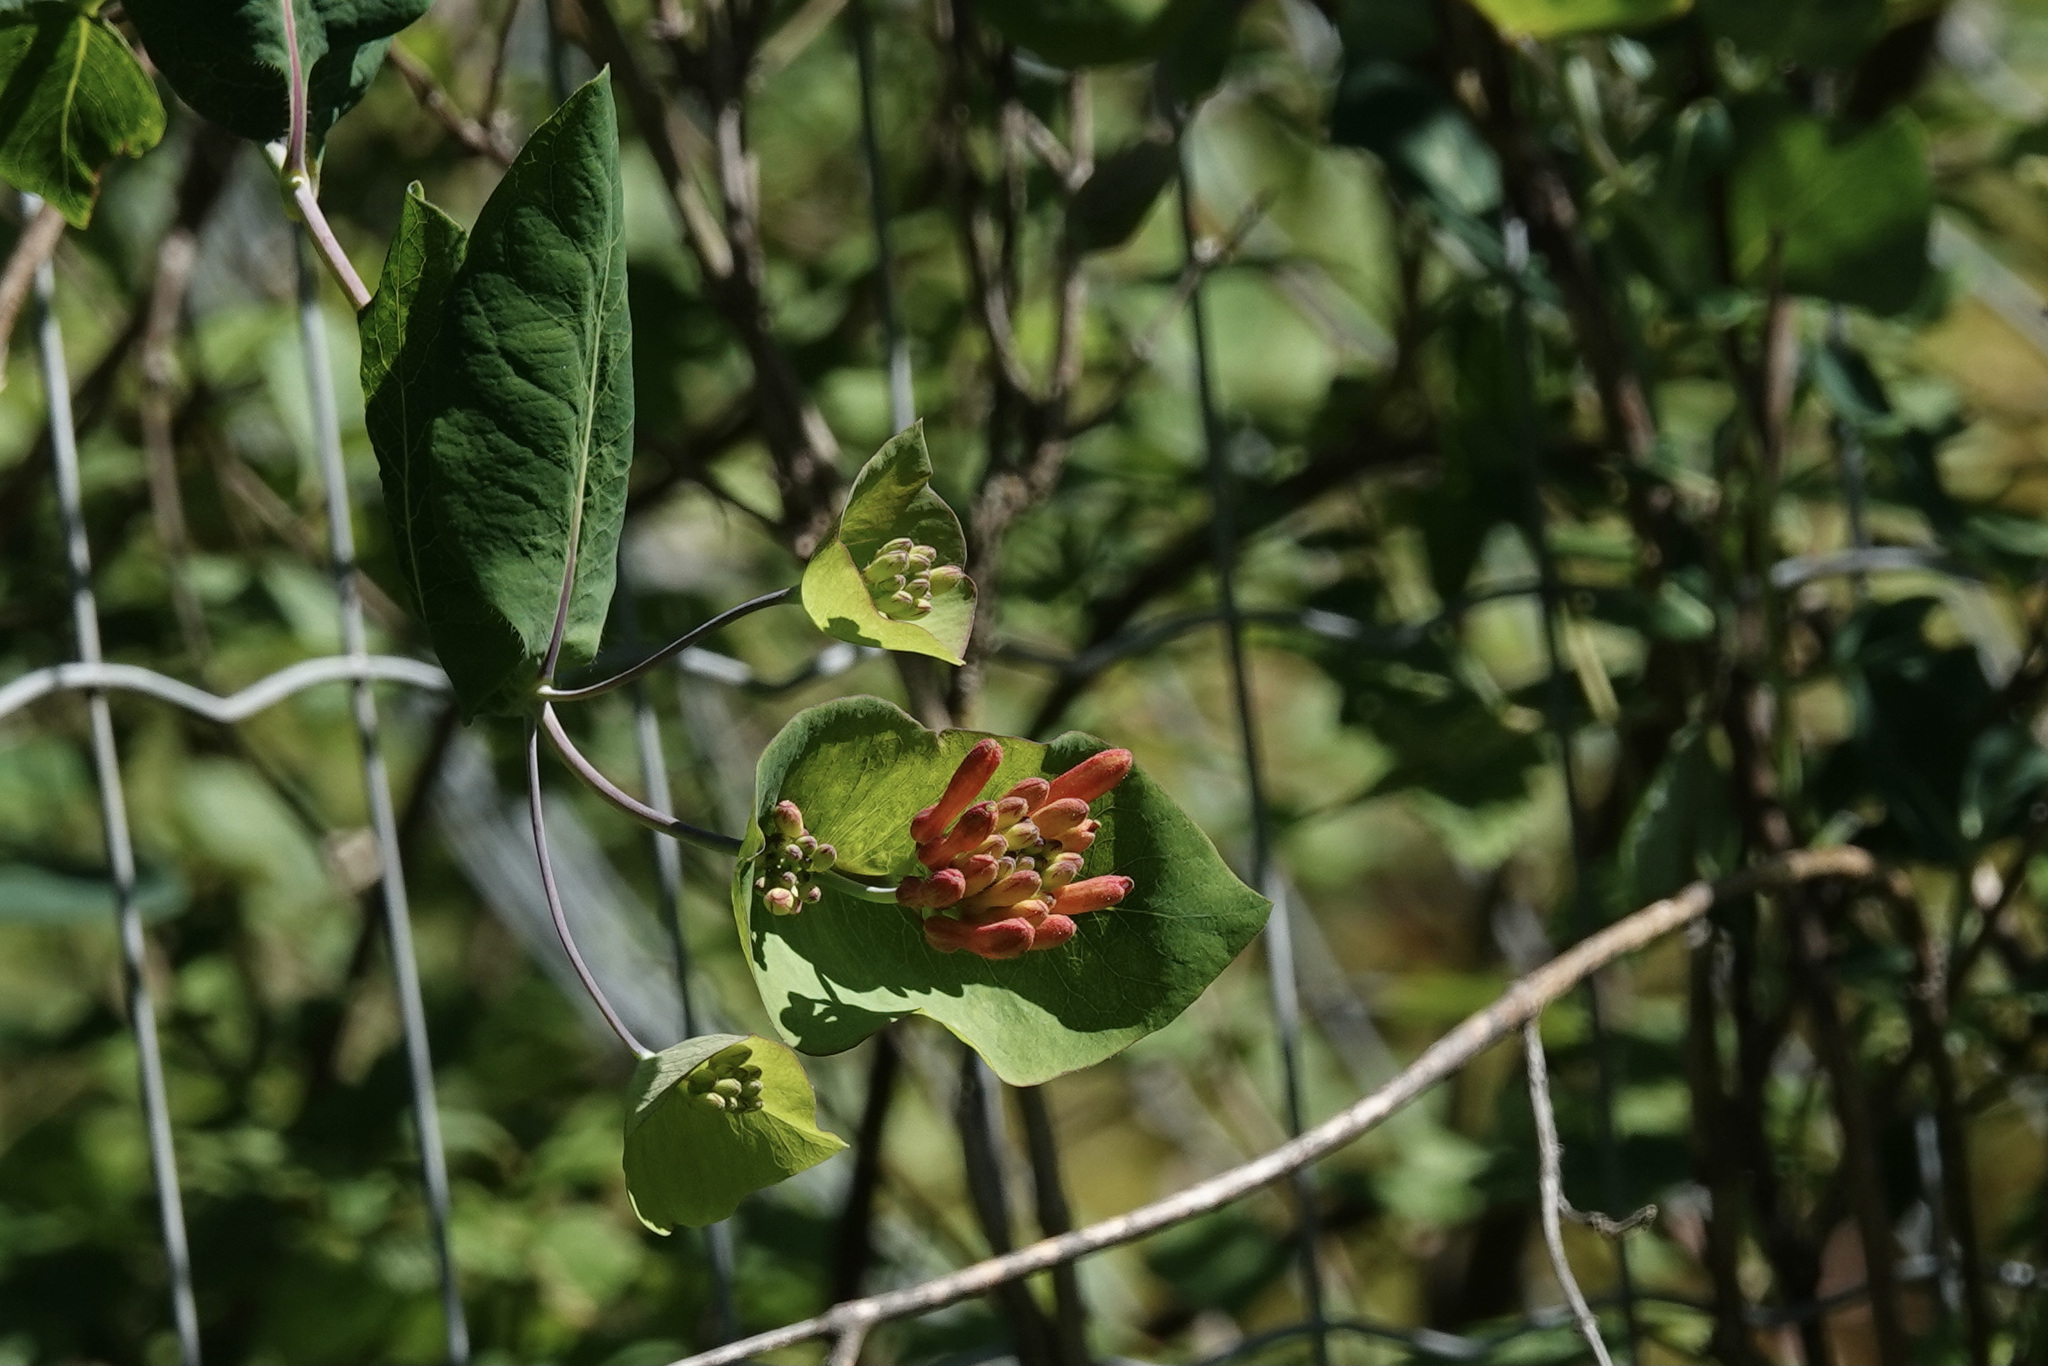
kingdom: Plantae
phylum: Tracheophyta
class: Magnoliopsida
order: Dipsacales
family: Caprifoliaceae
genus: Lonicera
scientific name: Lonicera ciliosa
